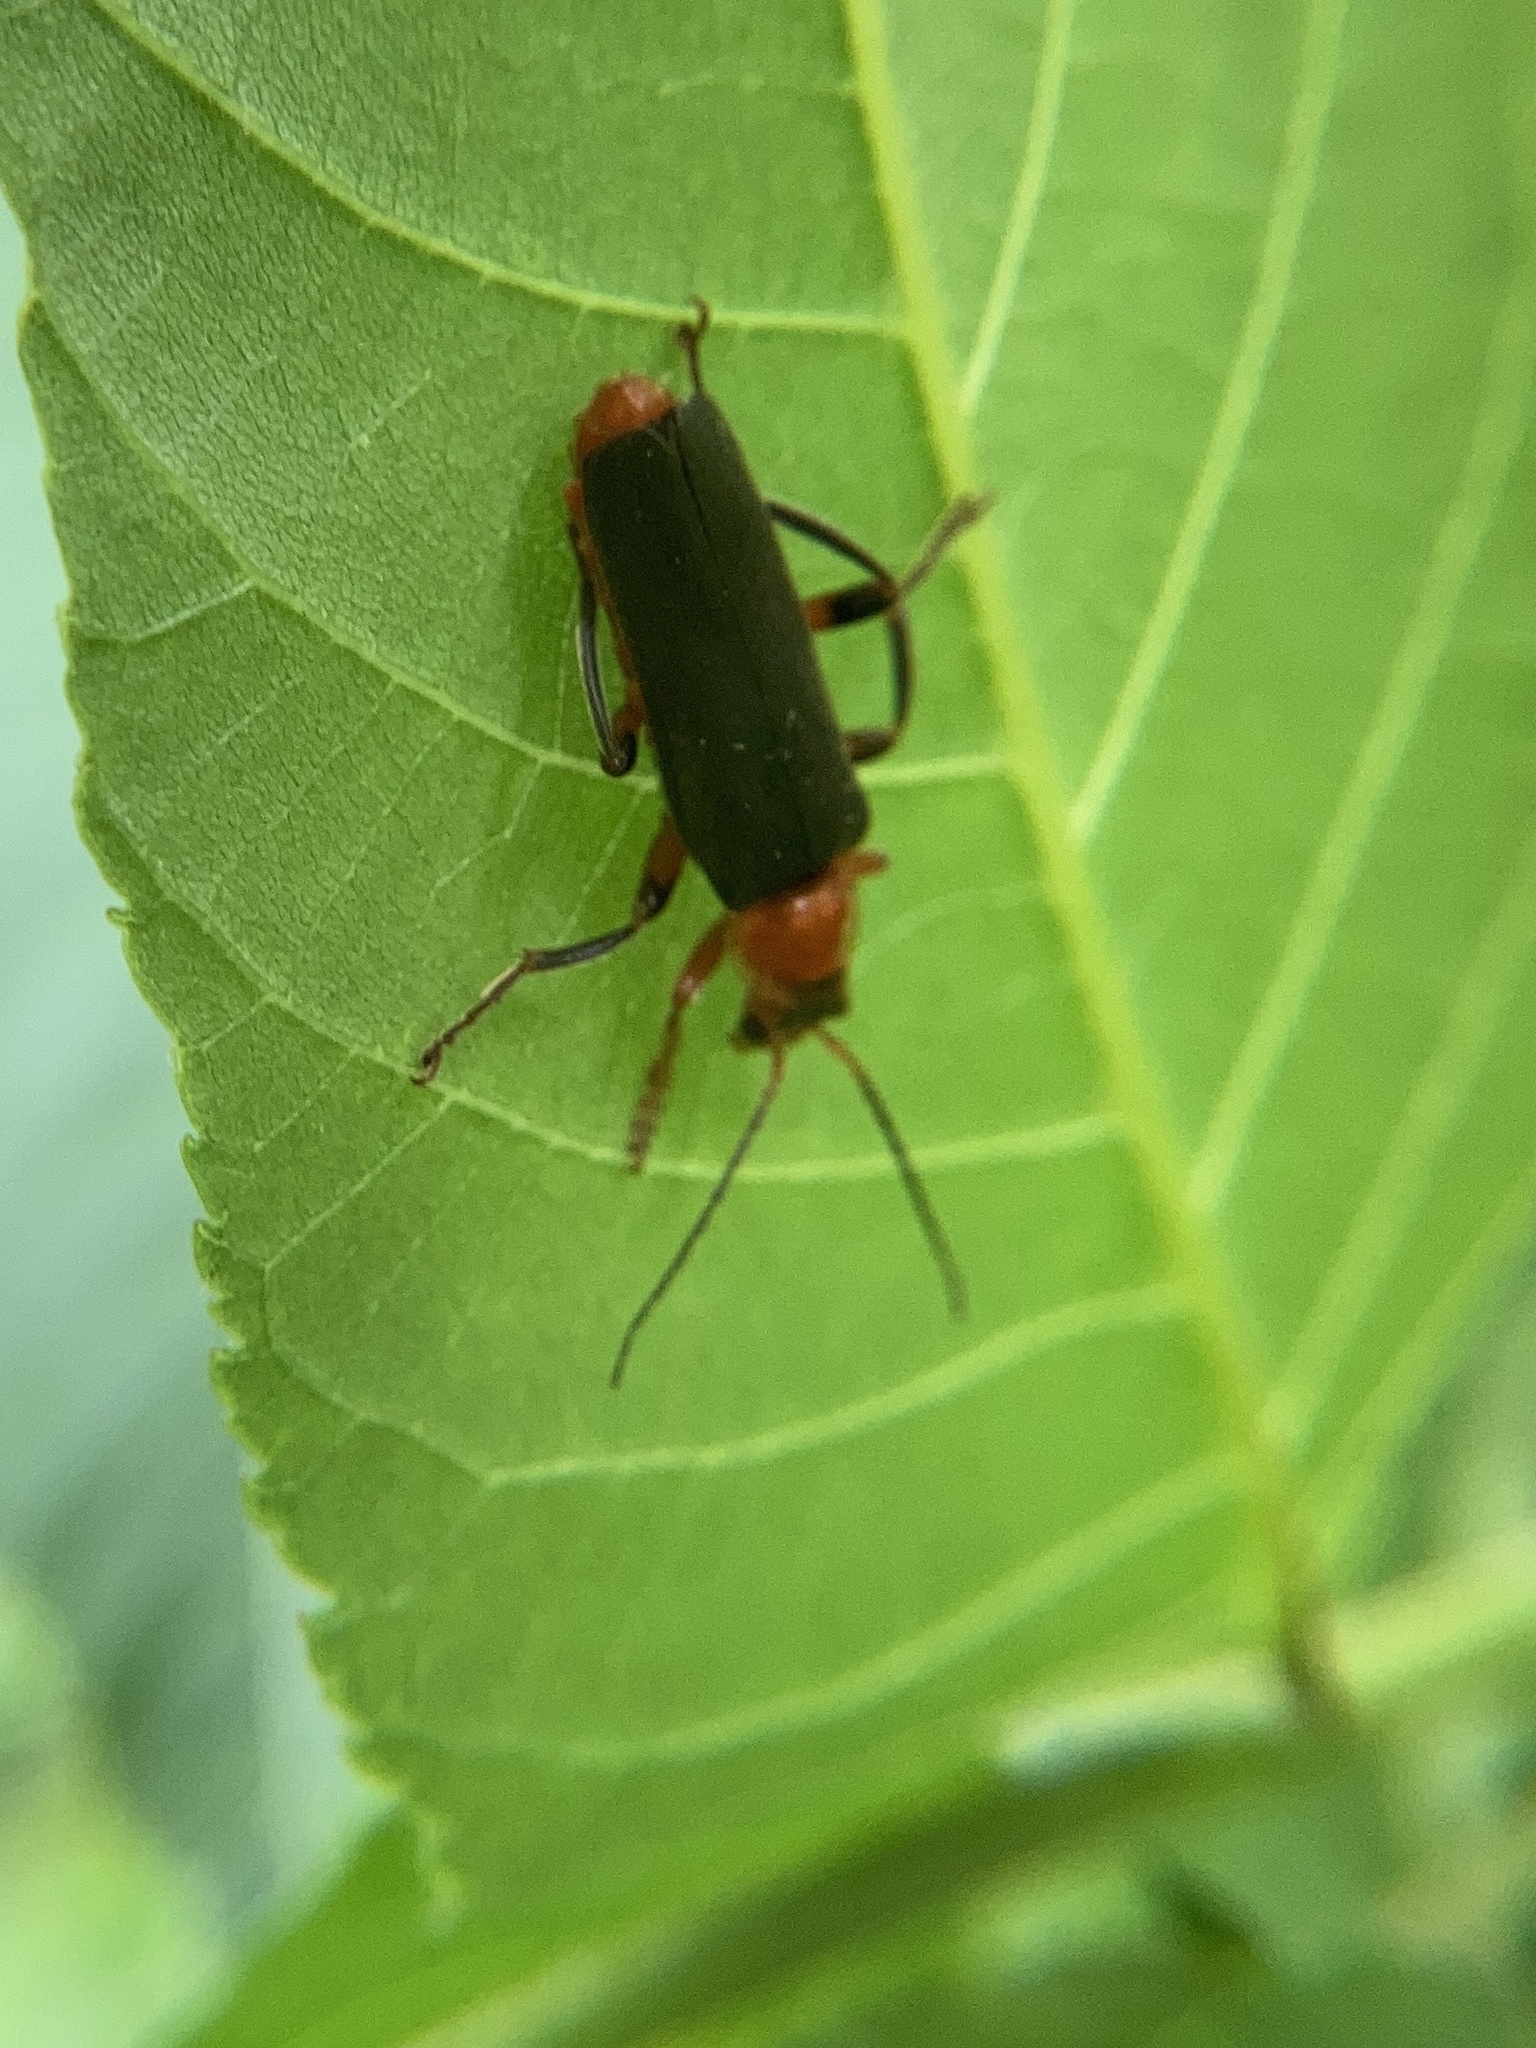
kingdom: Animalia
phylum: Arthropoda
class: Insecta
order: Coleoptera
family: Cantharidae
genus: Cantharis
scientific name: Cantharis livida
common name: Livid soldier beetle
